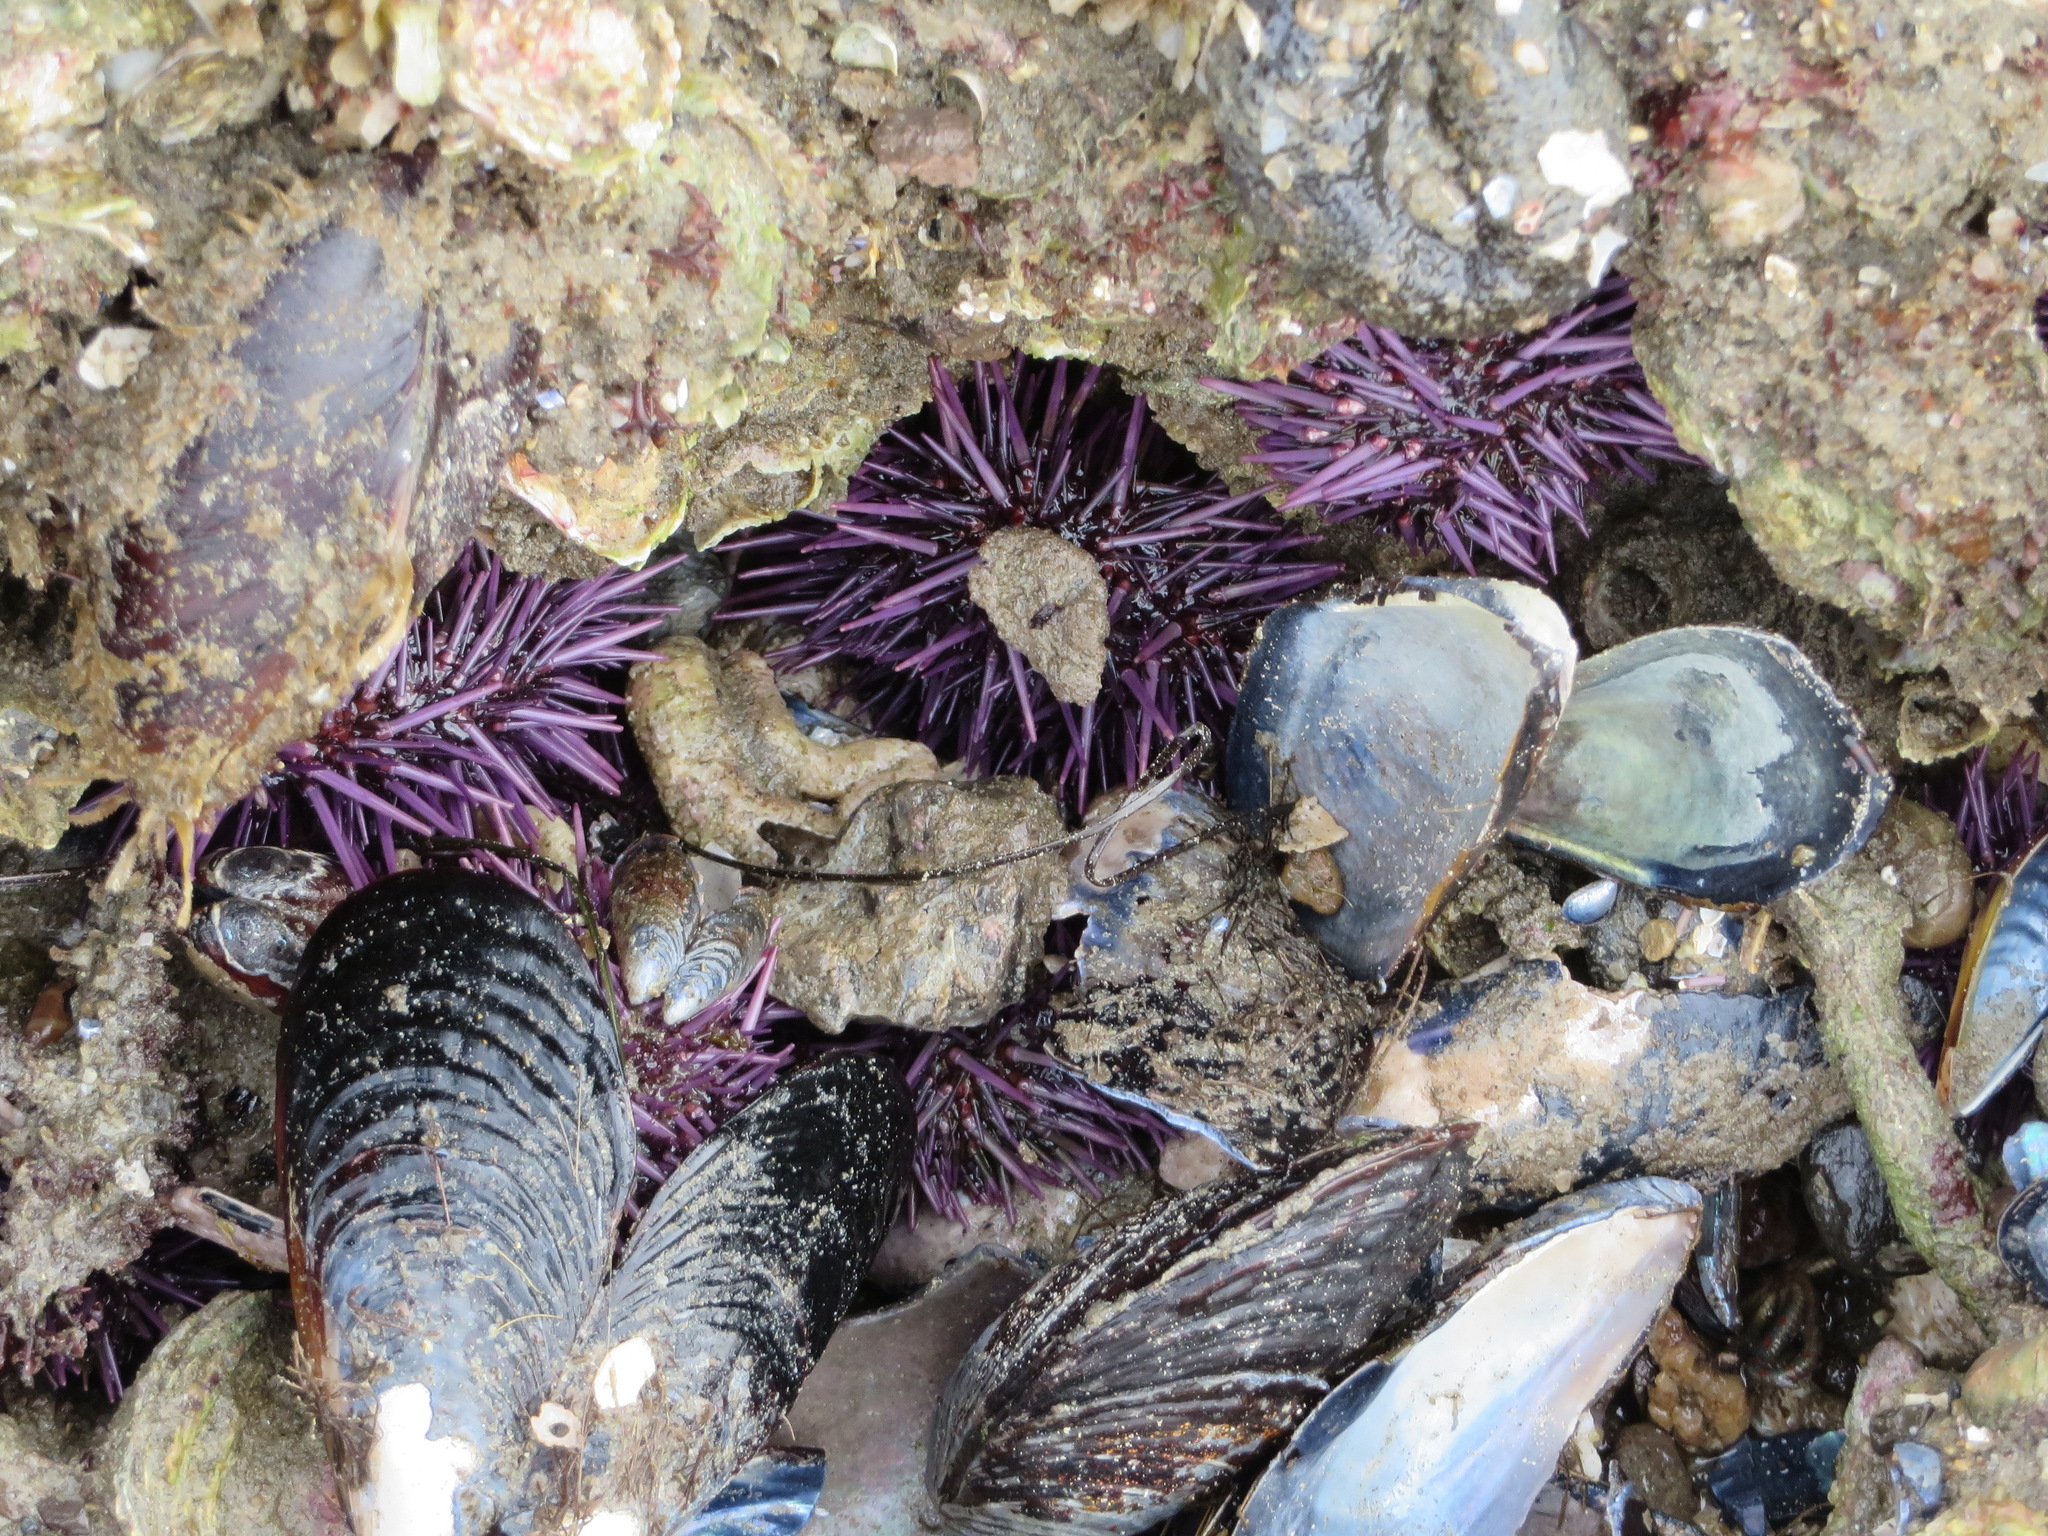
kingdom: Animalia
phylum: Echinodermata
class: Echinoidea
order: Camarodonta
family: Strongylocentrotidae
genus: Strongylocentrotus
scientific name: Strongylocentrotus purpuratus
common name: Purple sea urchin
